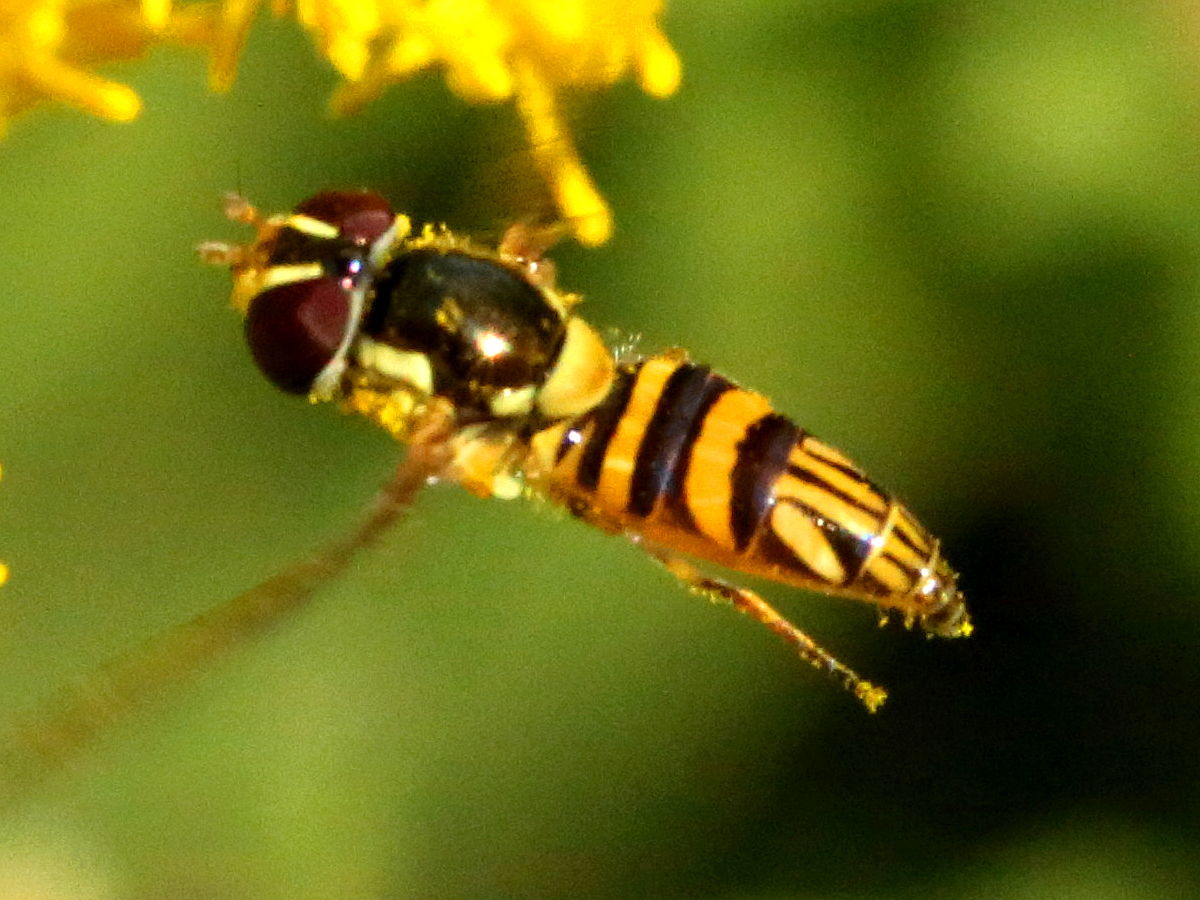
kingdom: Animalia
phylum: Arthropoda
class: Insecta
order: Diptera
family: Syrphidae
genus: Allograpta
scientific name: Allograpta obliqua
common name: Common oblique syrphid
